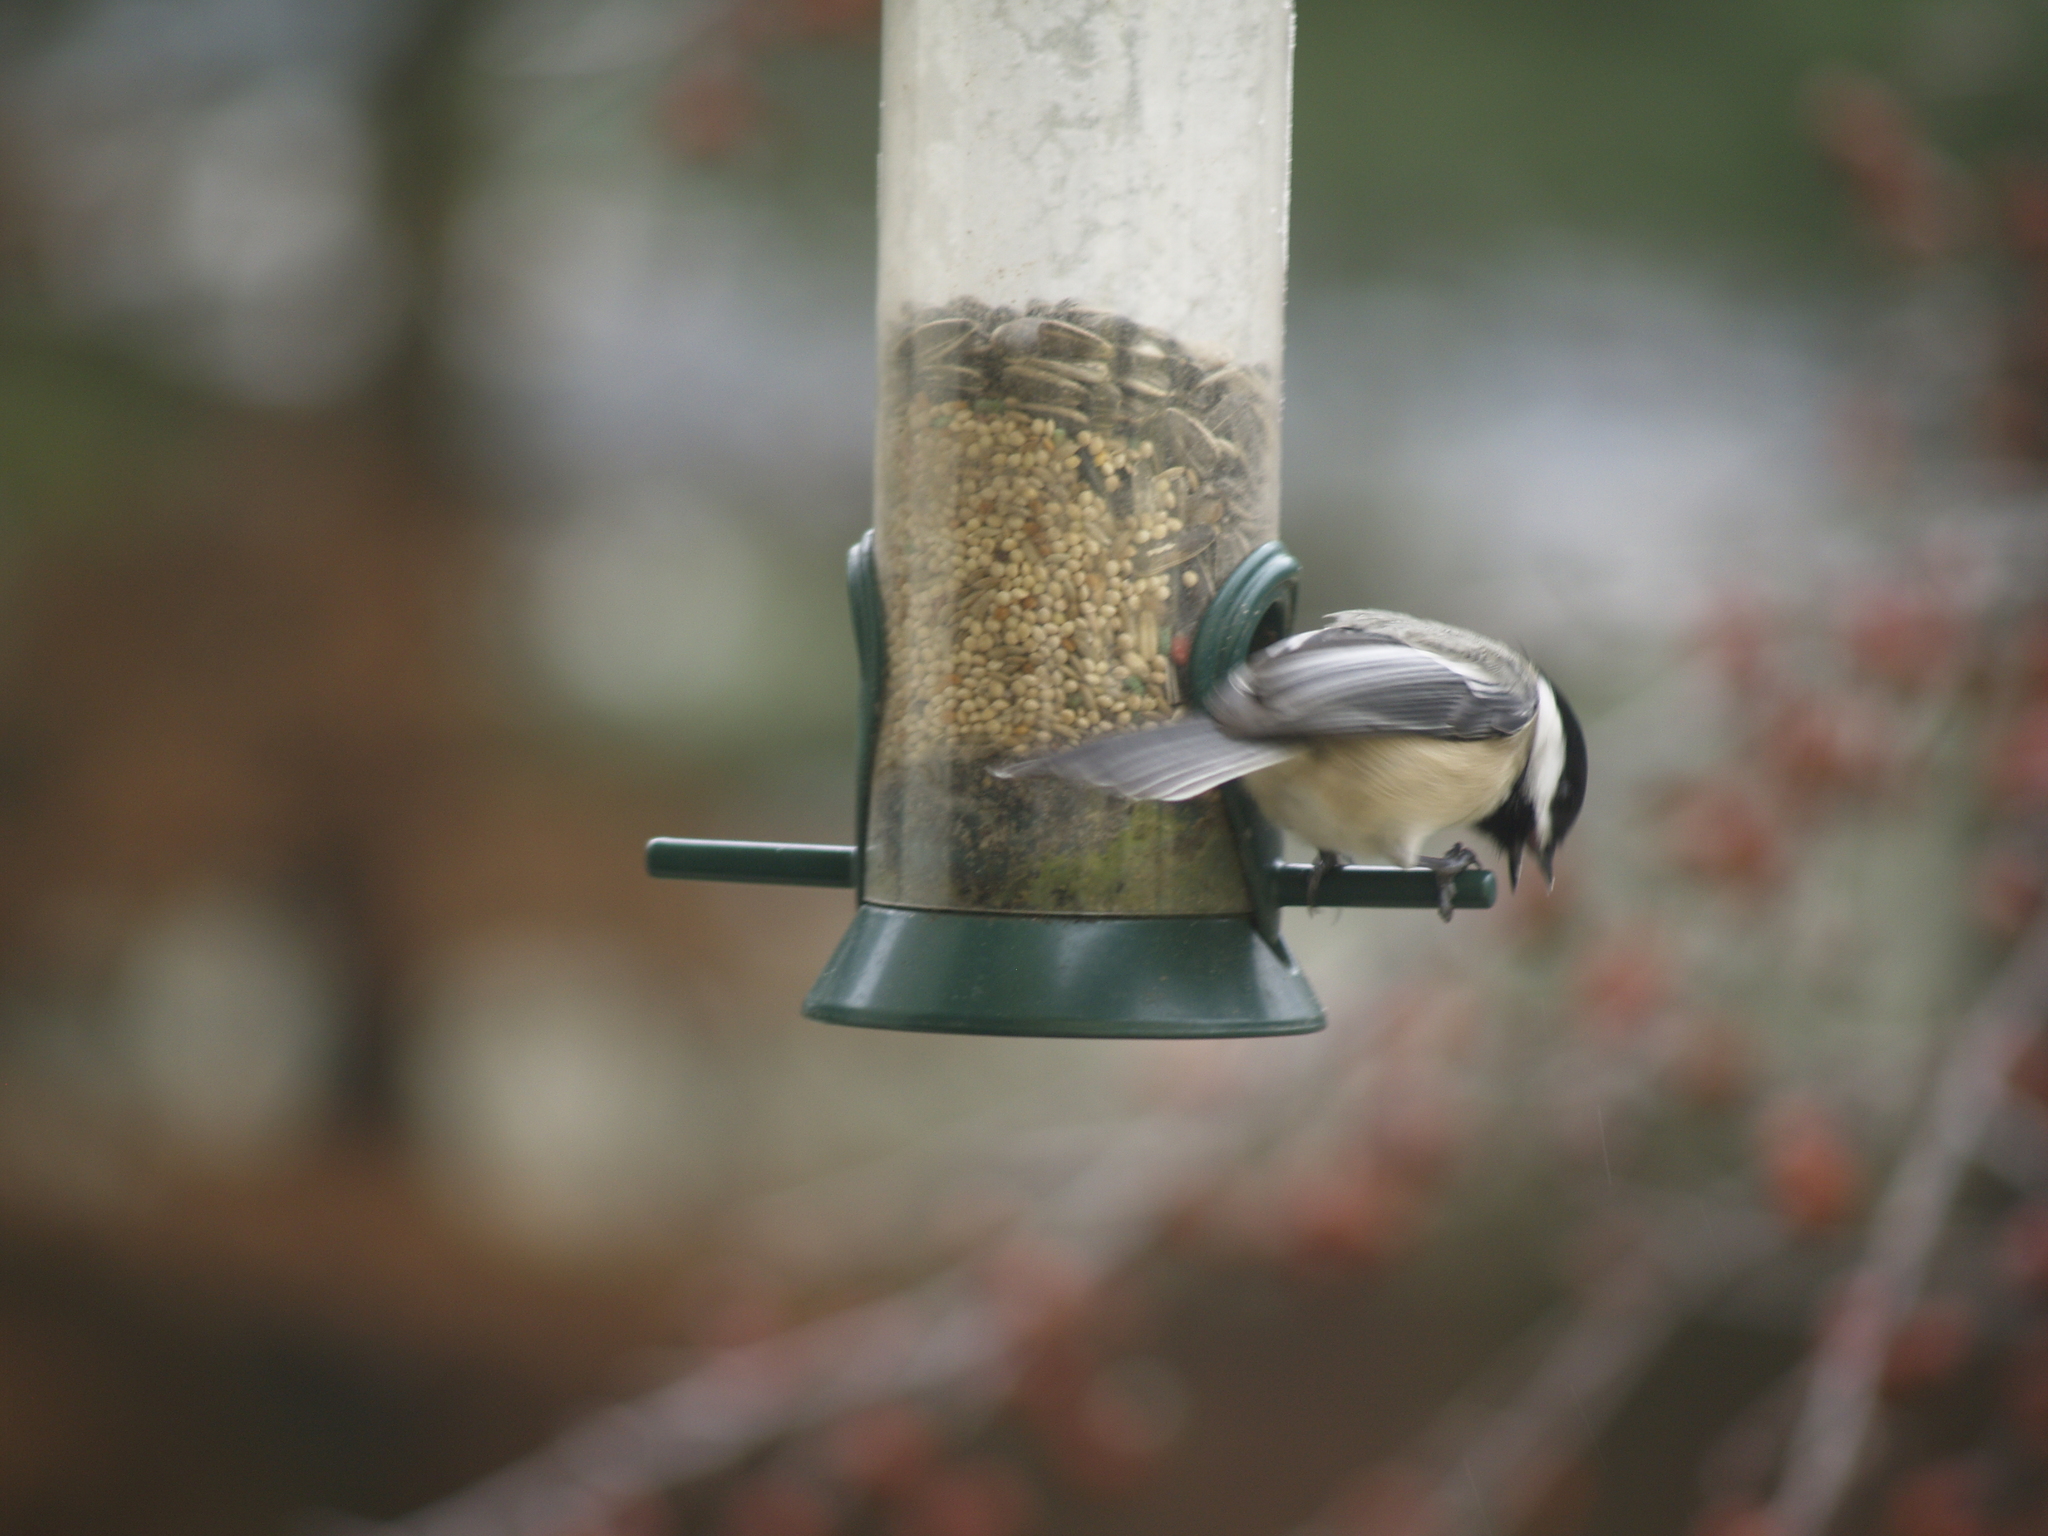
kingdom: Animalia
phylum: Chordata
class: Aves
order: Passeriformes
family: Paridae
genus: Poecile
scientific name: Poecile atricapillus
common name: Black-capped chickadee
